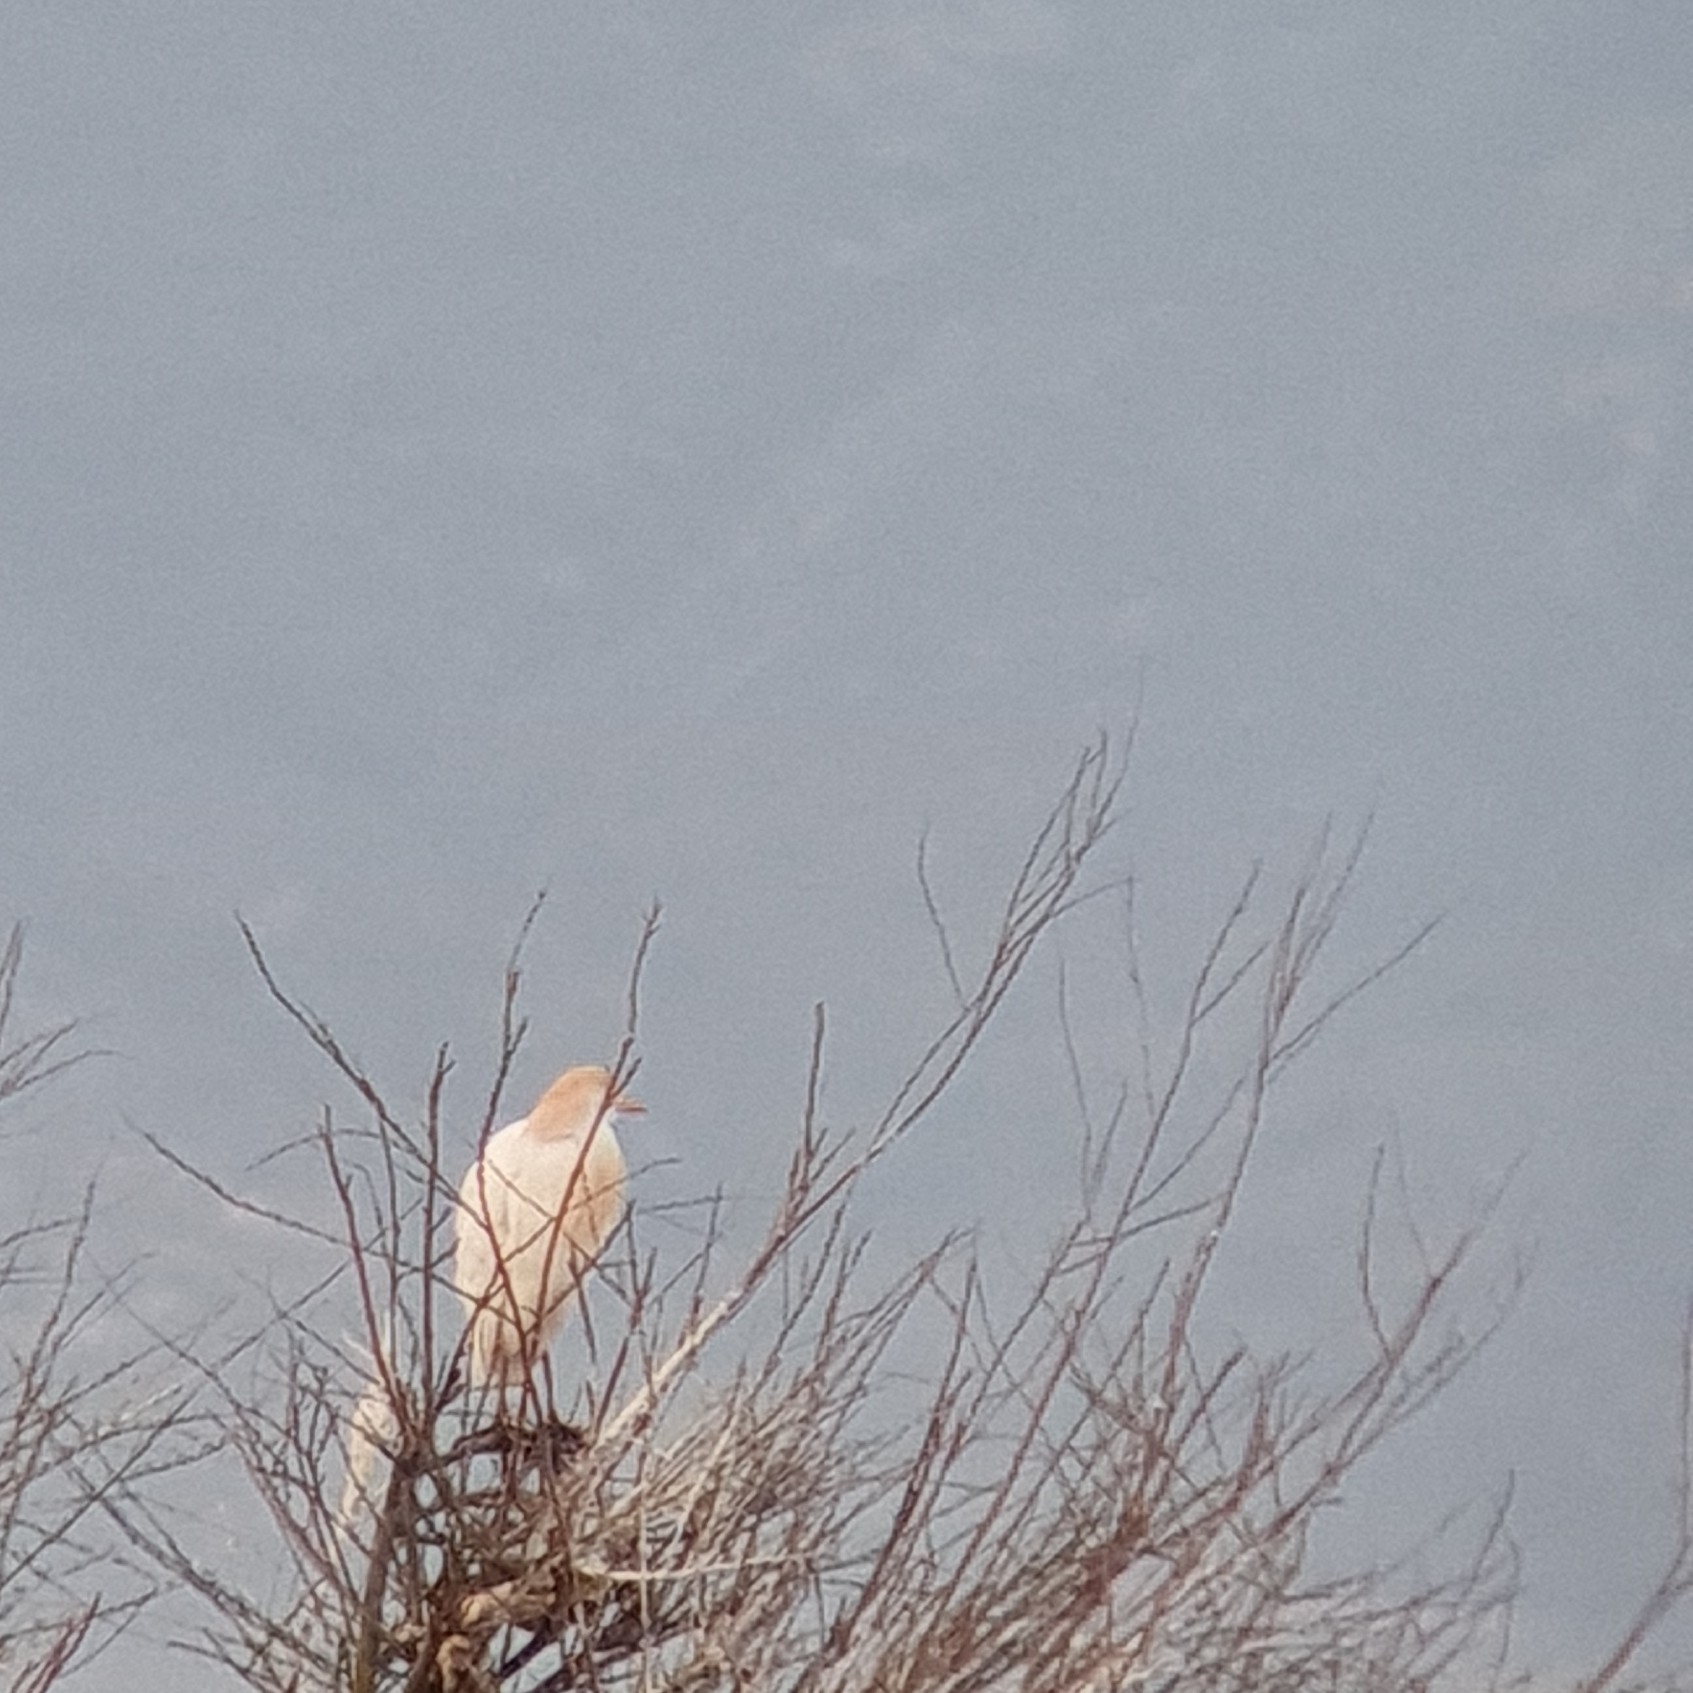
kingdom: Animalia
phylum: Chordata
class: Aves
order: Pelecaniformes
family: Ardeidae
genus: Bubulcus
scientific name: Bubulcus ibis
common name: Cattle egret
